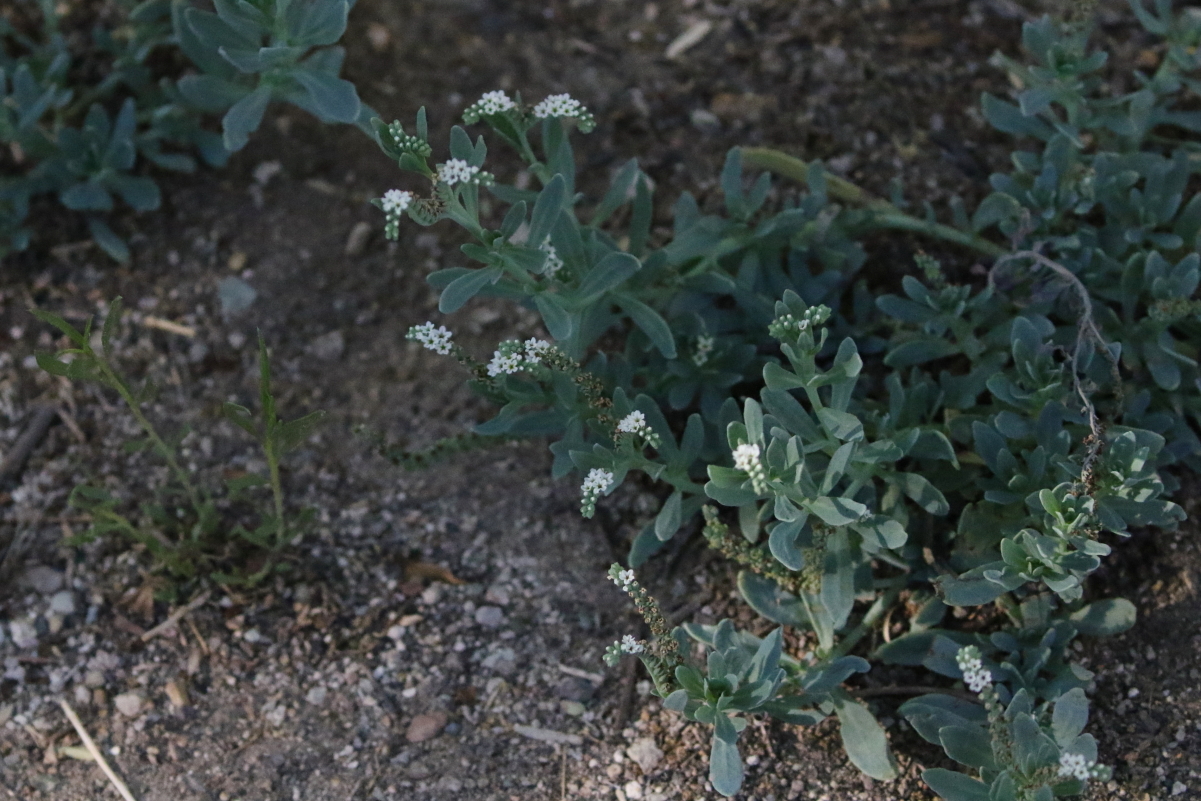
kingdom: Plantae
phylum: Tracheophyta
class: Magnoliopsida
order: Boraginales
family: Heliotropiaceae
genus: Heliotropium
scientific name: Heliotropium curassavicum
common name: Seaside heliotrope
